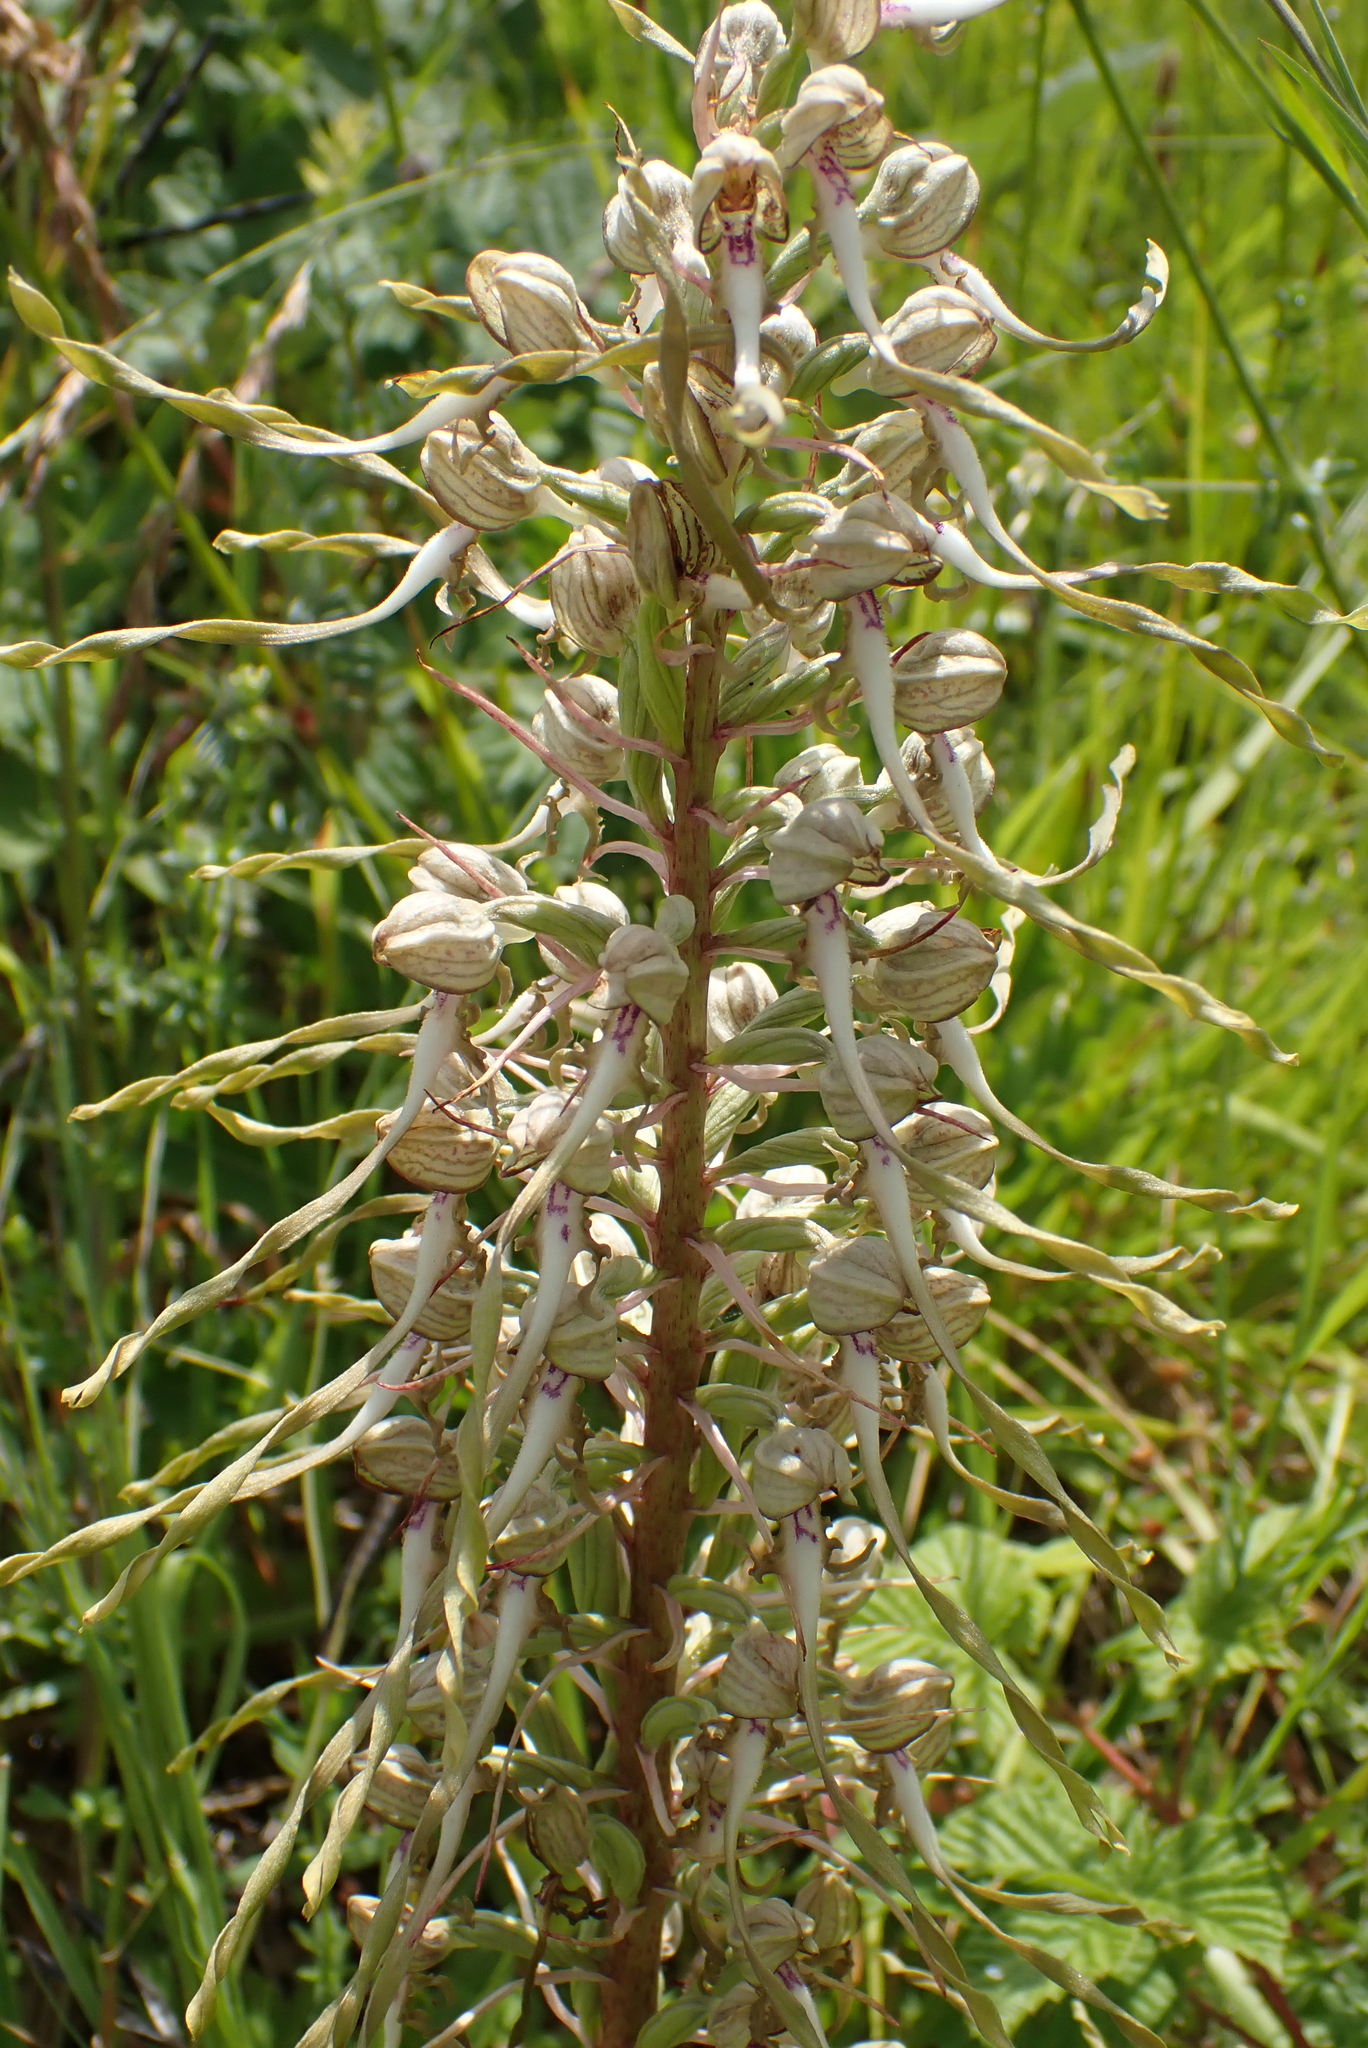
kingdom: Plantae
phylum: Tracheophyta
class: Liliopsida
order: Asparagales
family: Orchidaceae
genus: Himantoglossum
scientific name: Himantoglossum hircinum
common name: Lizard orchid
